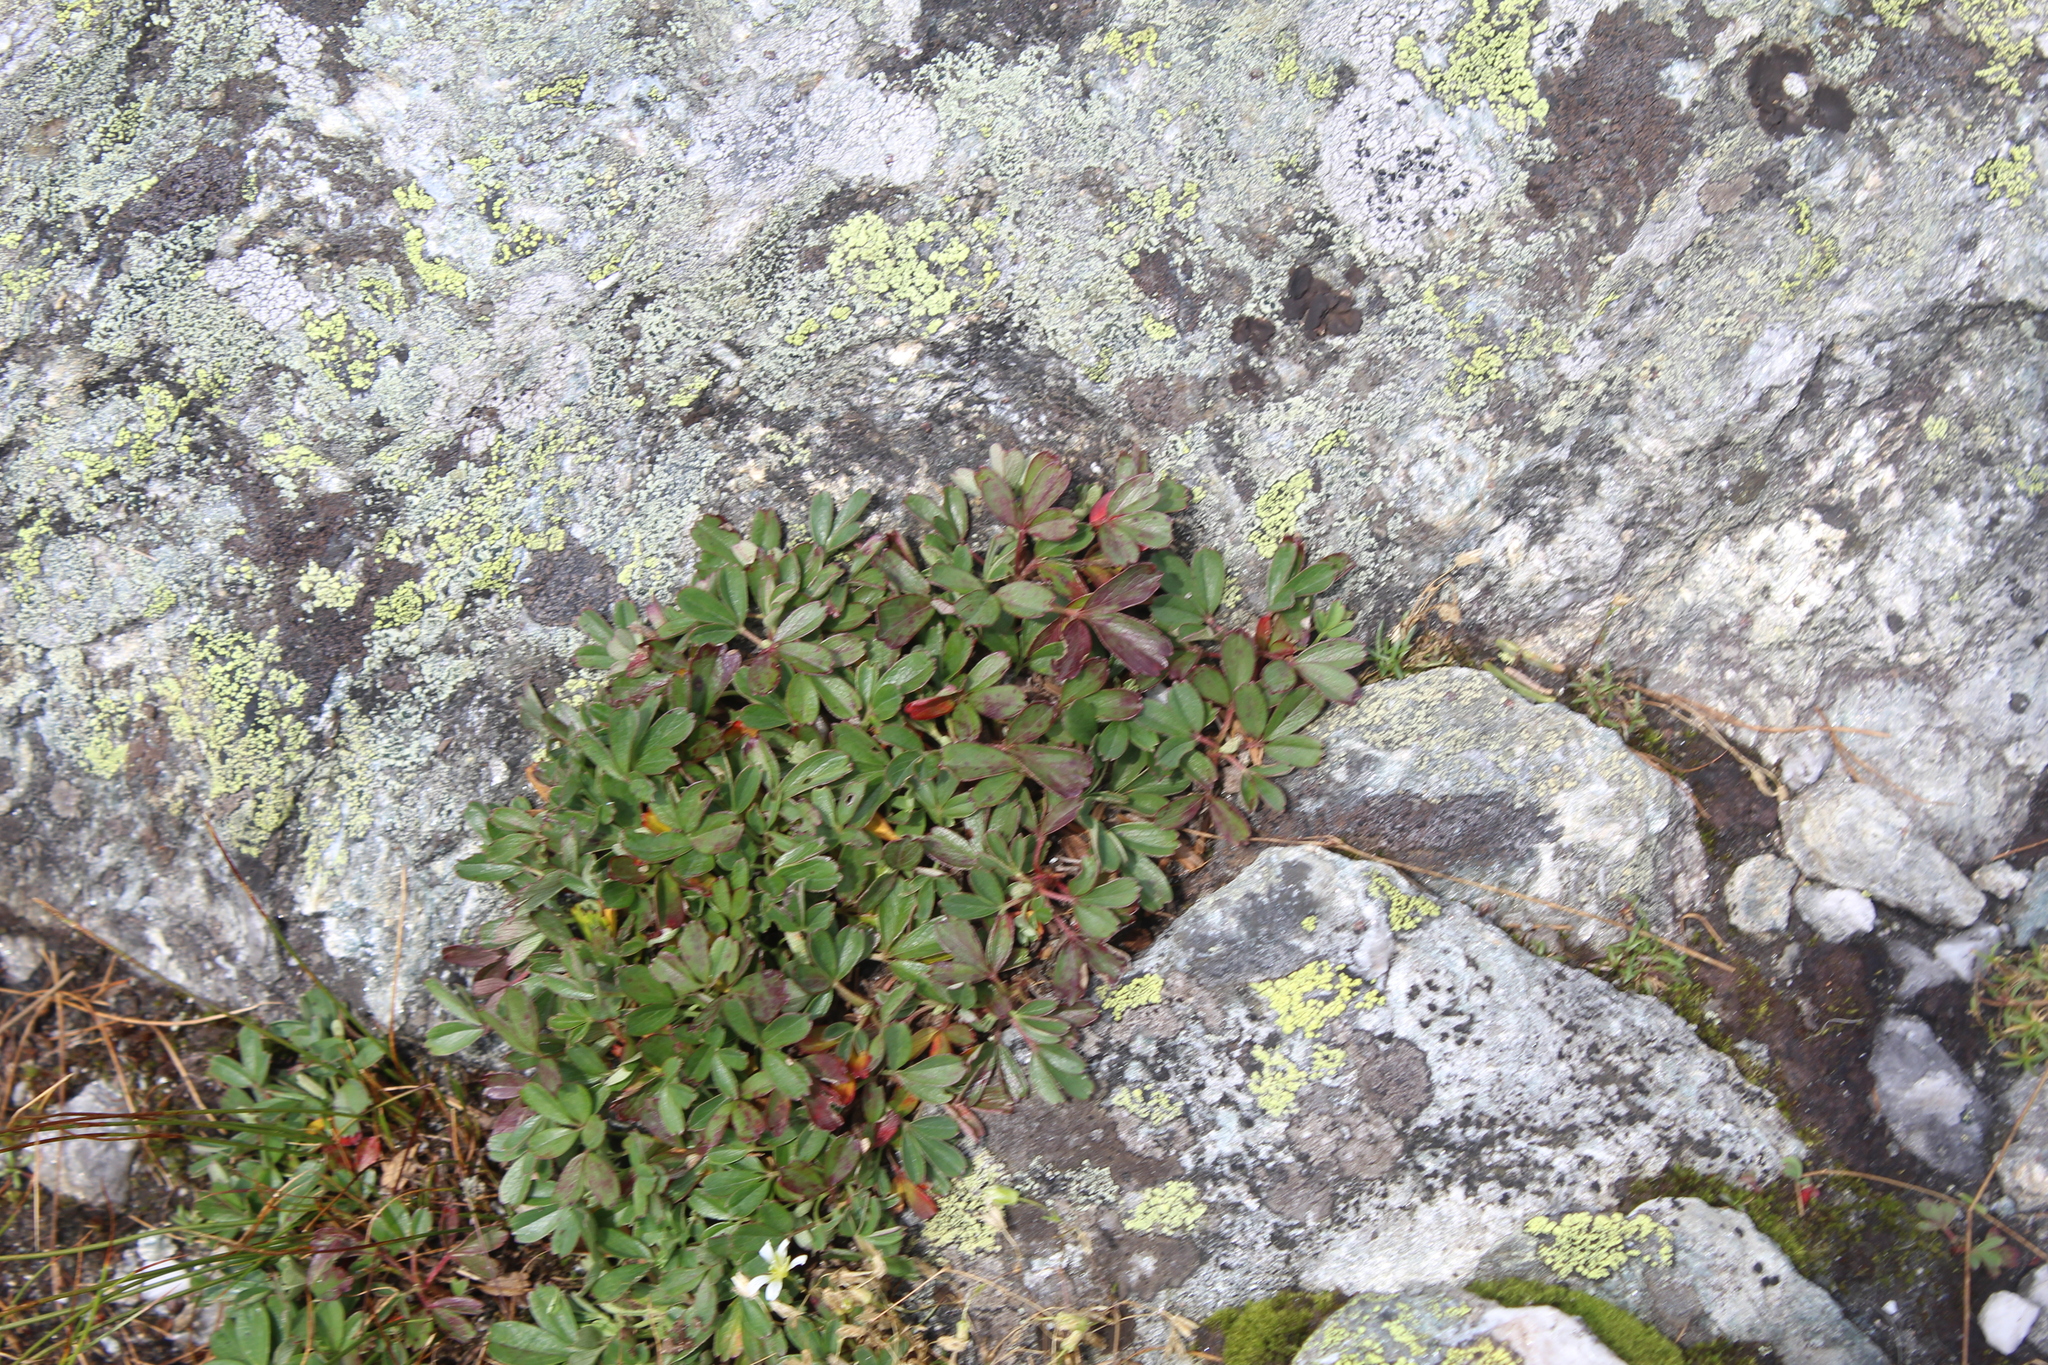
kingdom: Plantae
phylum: Tracheophyta
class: Magnoliopsida
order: Rosales
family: Rosaceae
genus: Sibbaldia
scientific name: Sibbaldia tridentata
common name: Three-toothed cinquefoil
